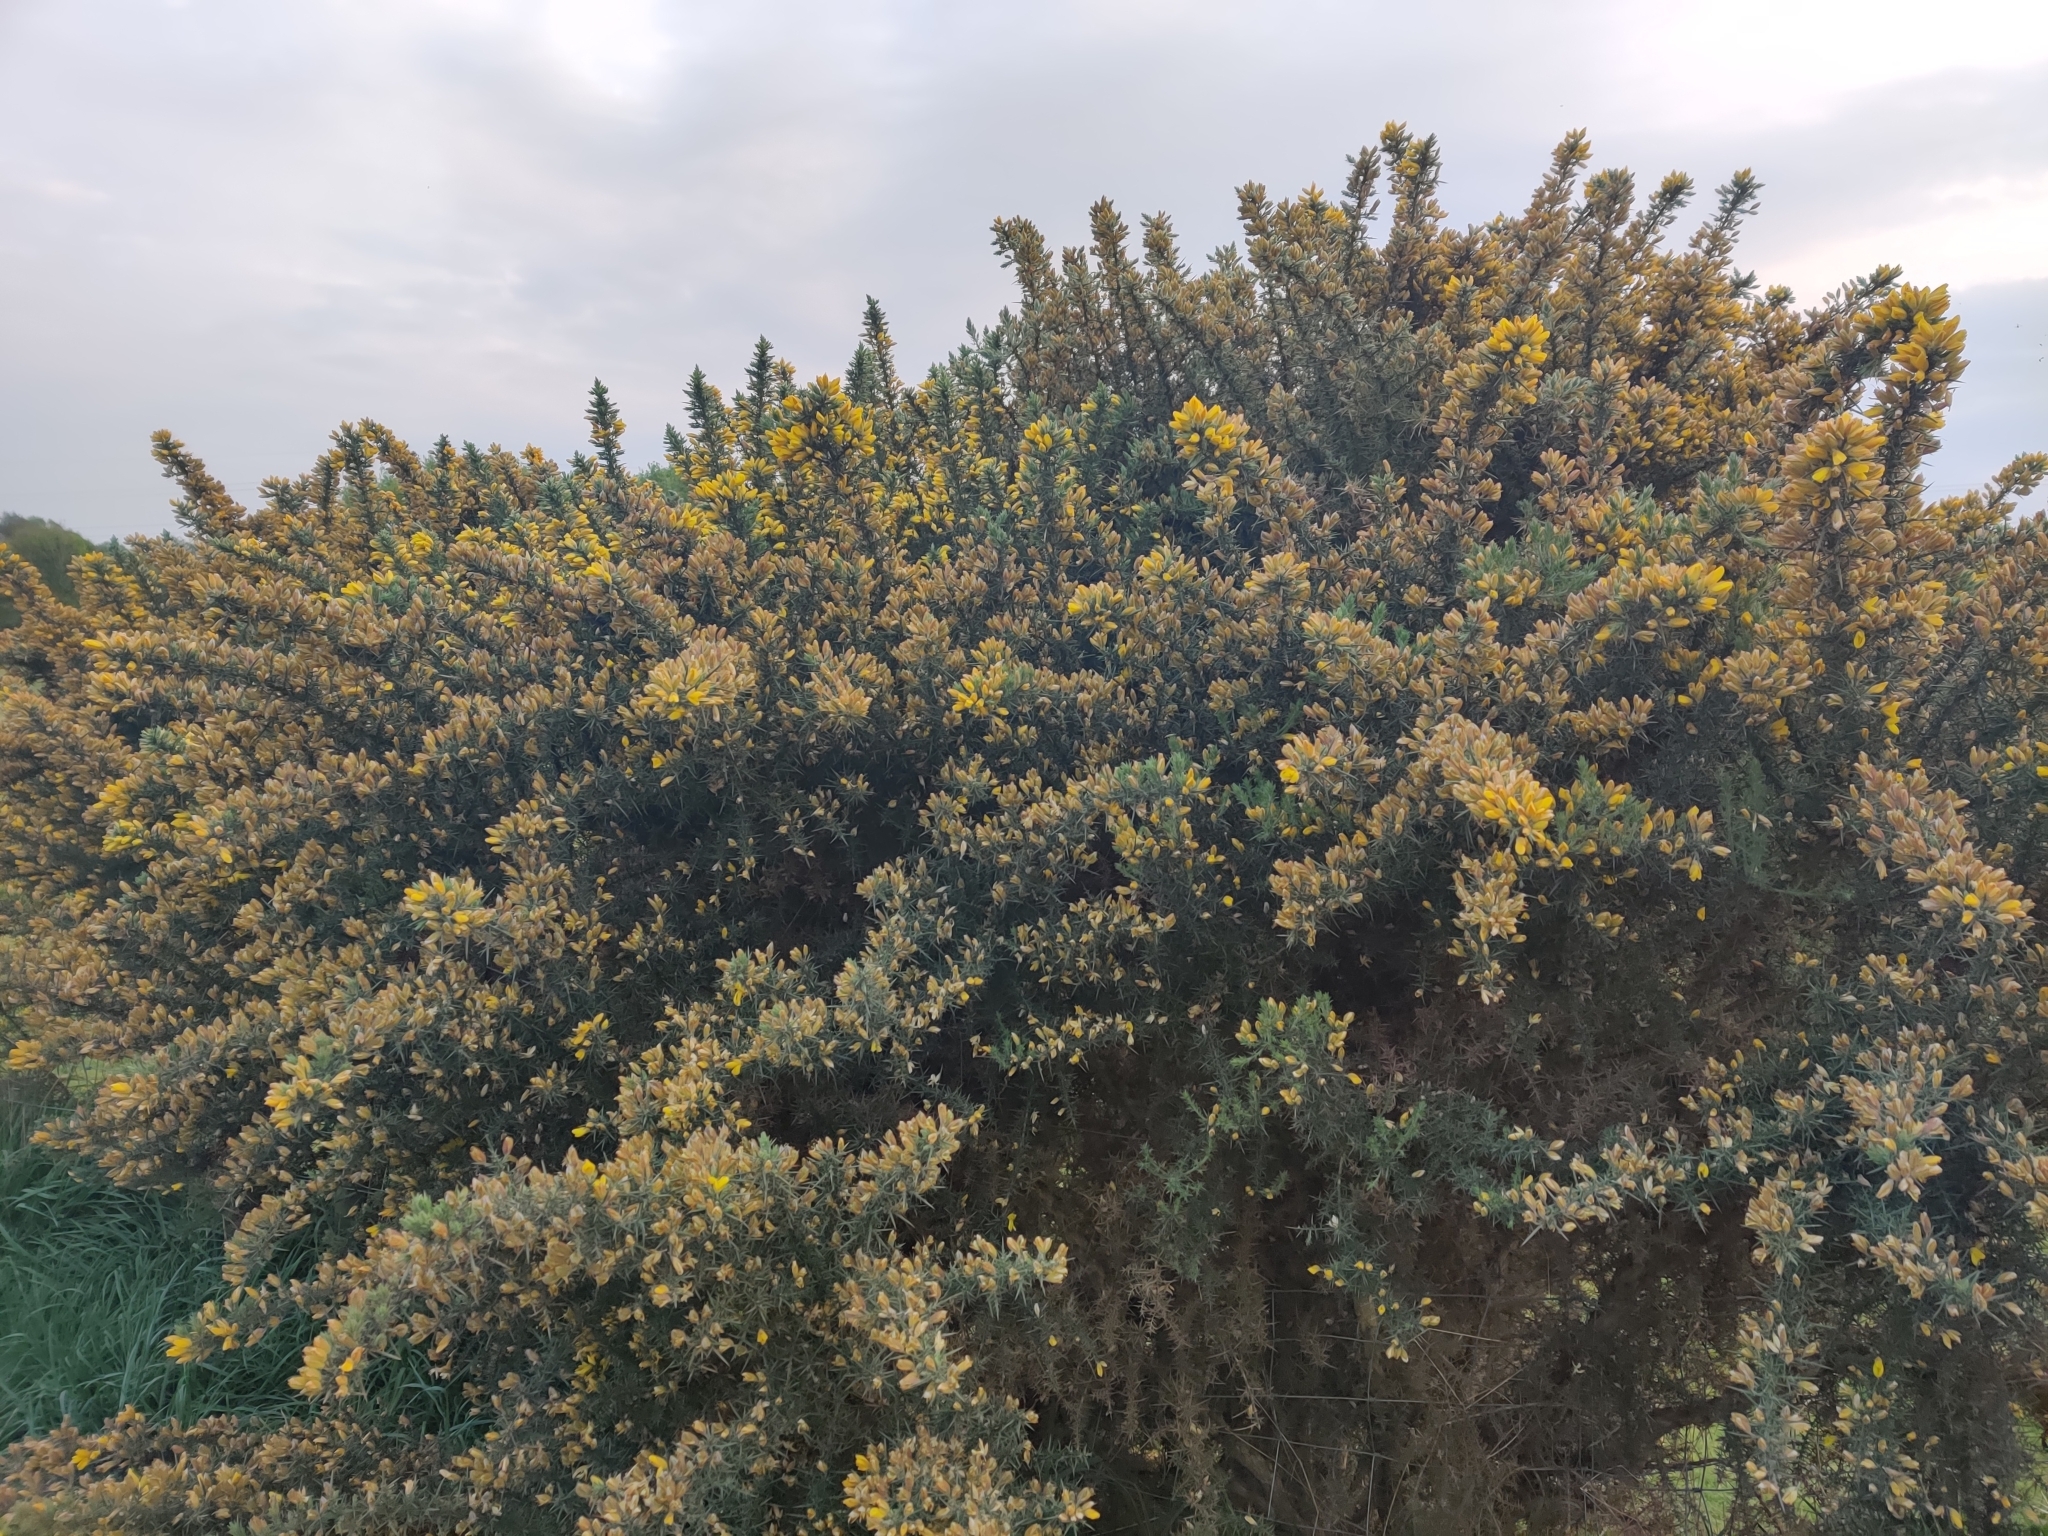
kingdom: Plantae
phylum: Tracheophyta
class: Magnoliopsida
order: Fabales
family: Fabaceae
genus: Ulex
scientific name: Ulex europaeus
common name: Common gorse
